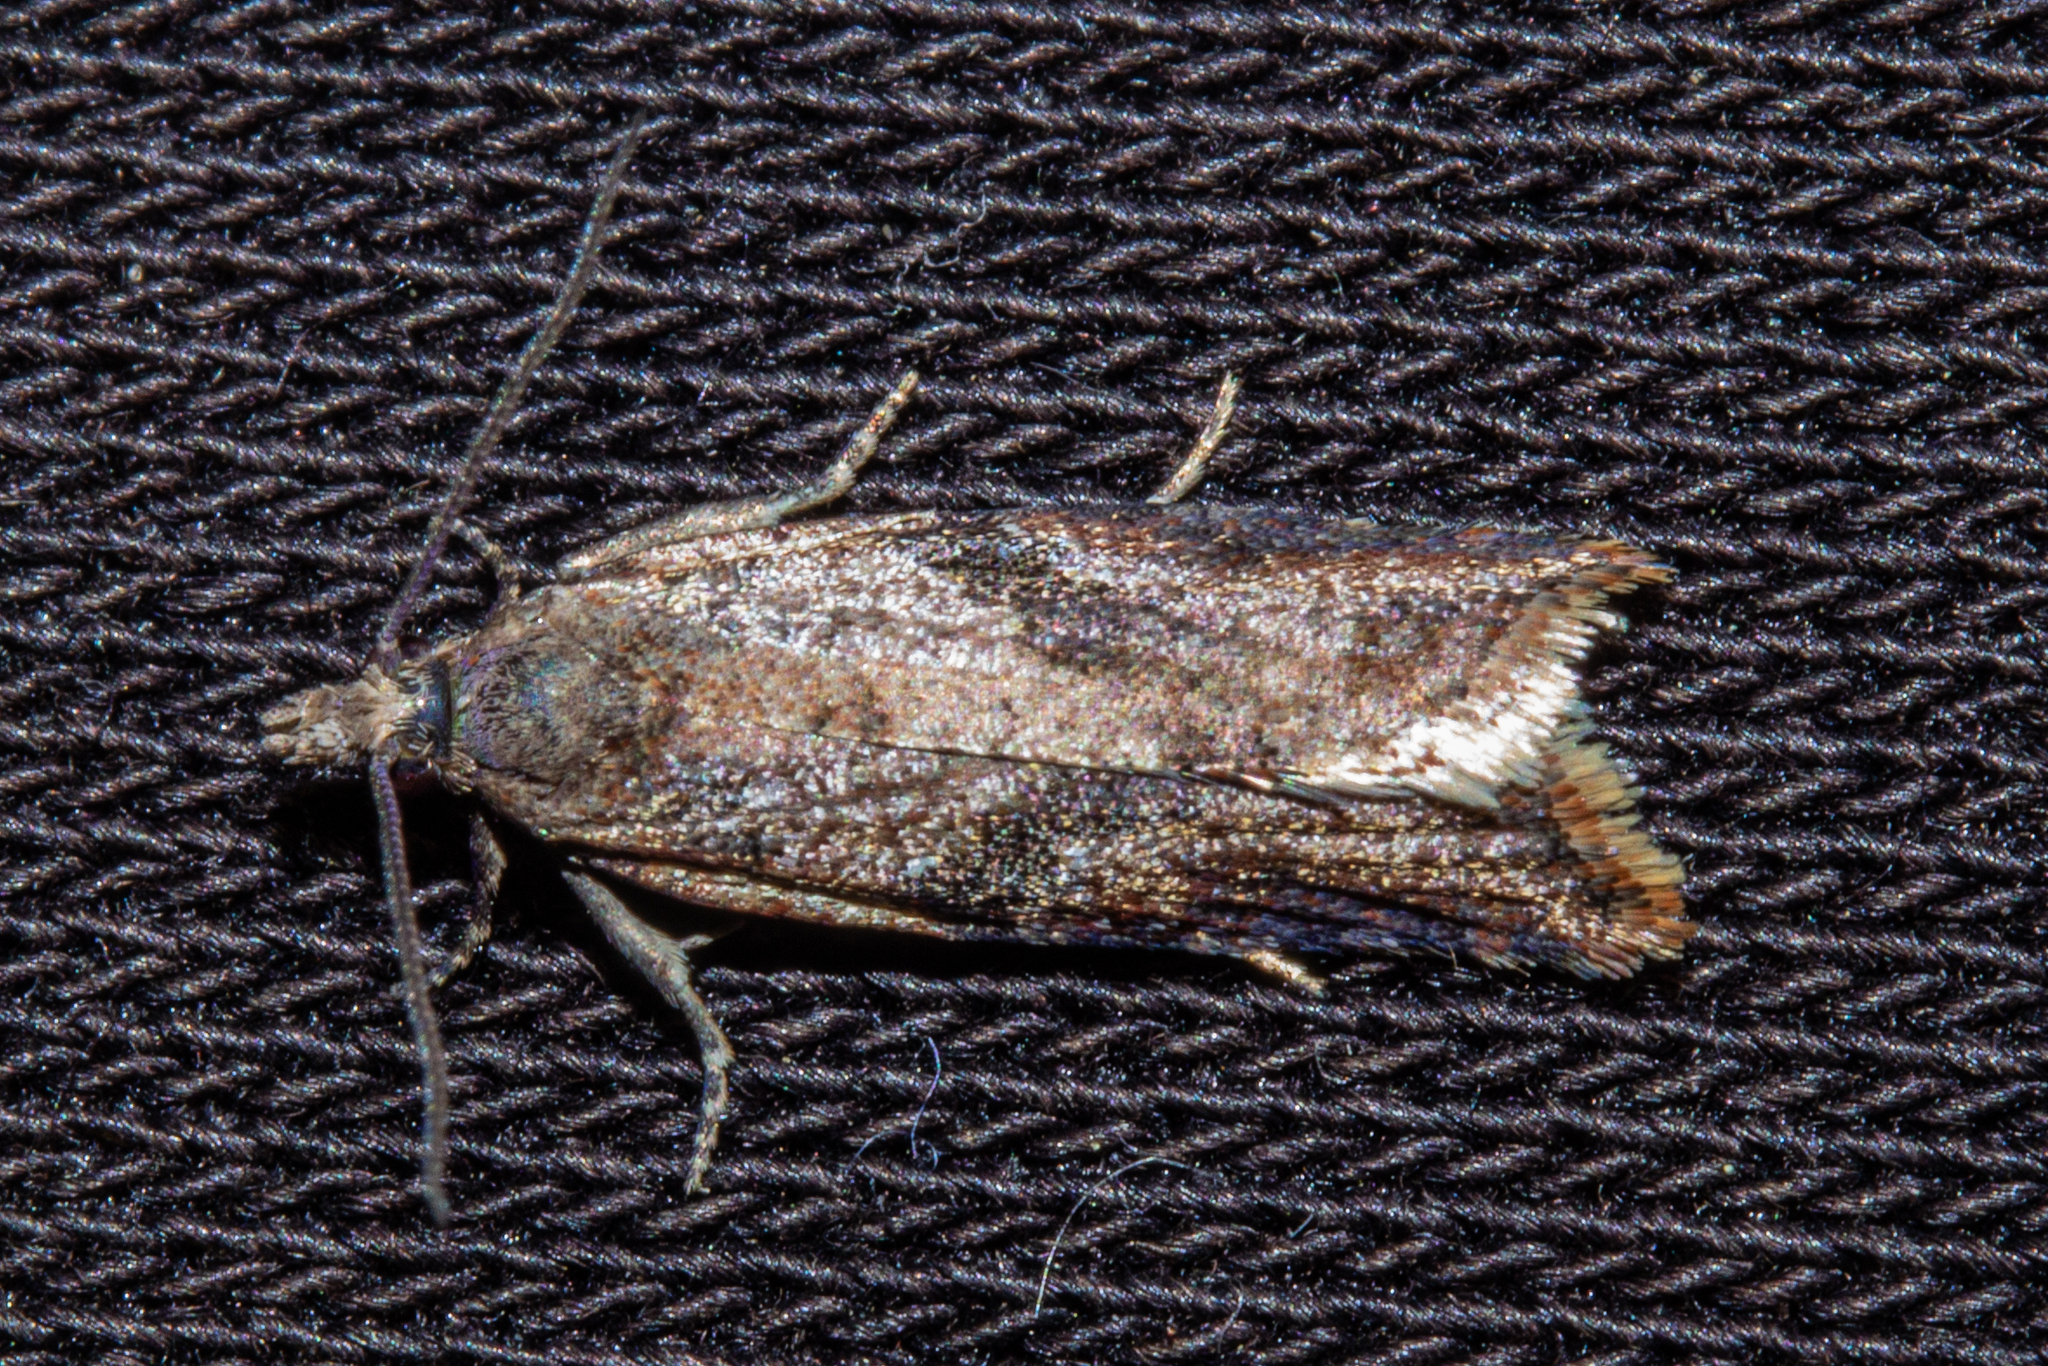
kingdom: Animalia
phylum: Arthropoda
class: Insecta
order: Lepidoptera
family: Tortricidae
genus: Capua
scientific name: Capua semiferana
